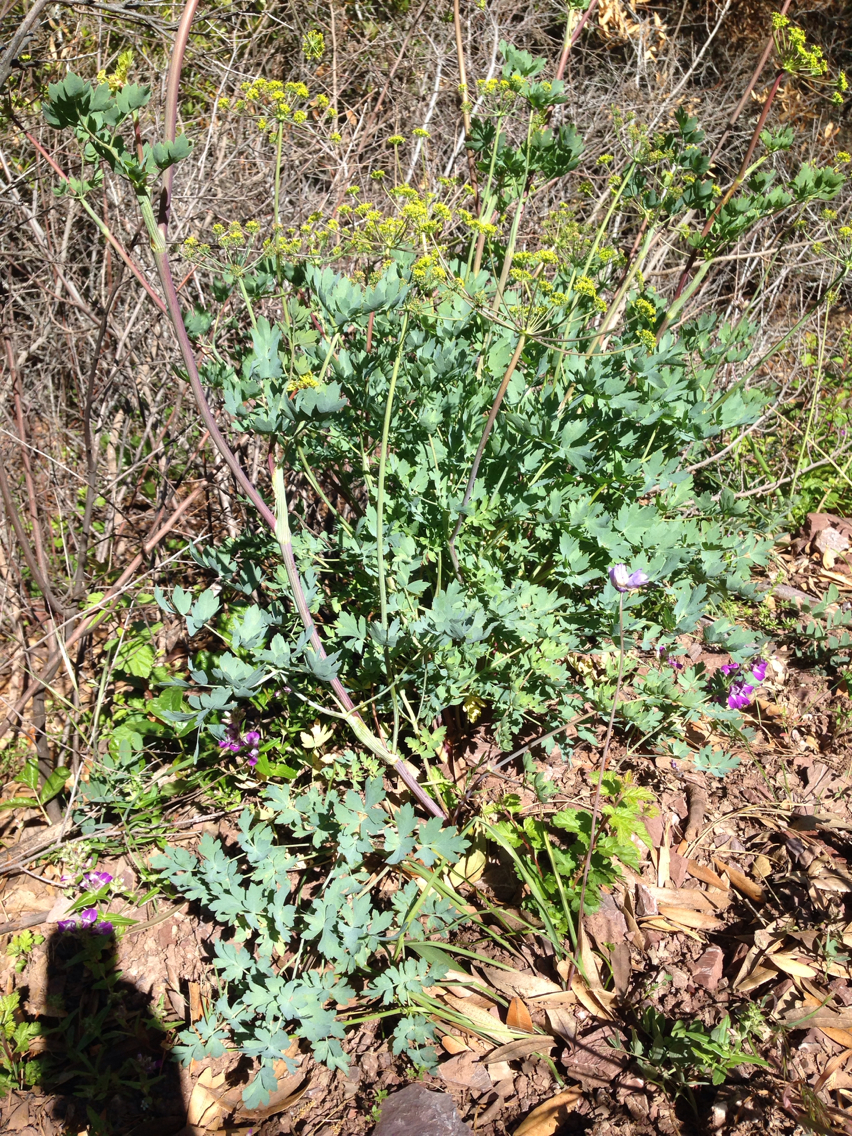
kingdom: Plantae
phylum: Tracheophyta
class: Magnoliopsida
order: Apiales
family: Apiaceae
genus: Lomatium
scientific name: Lomatium californicum
